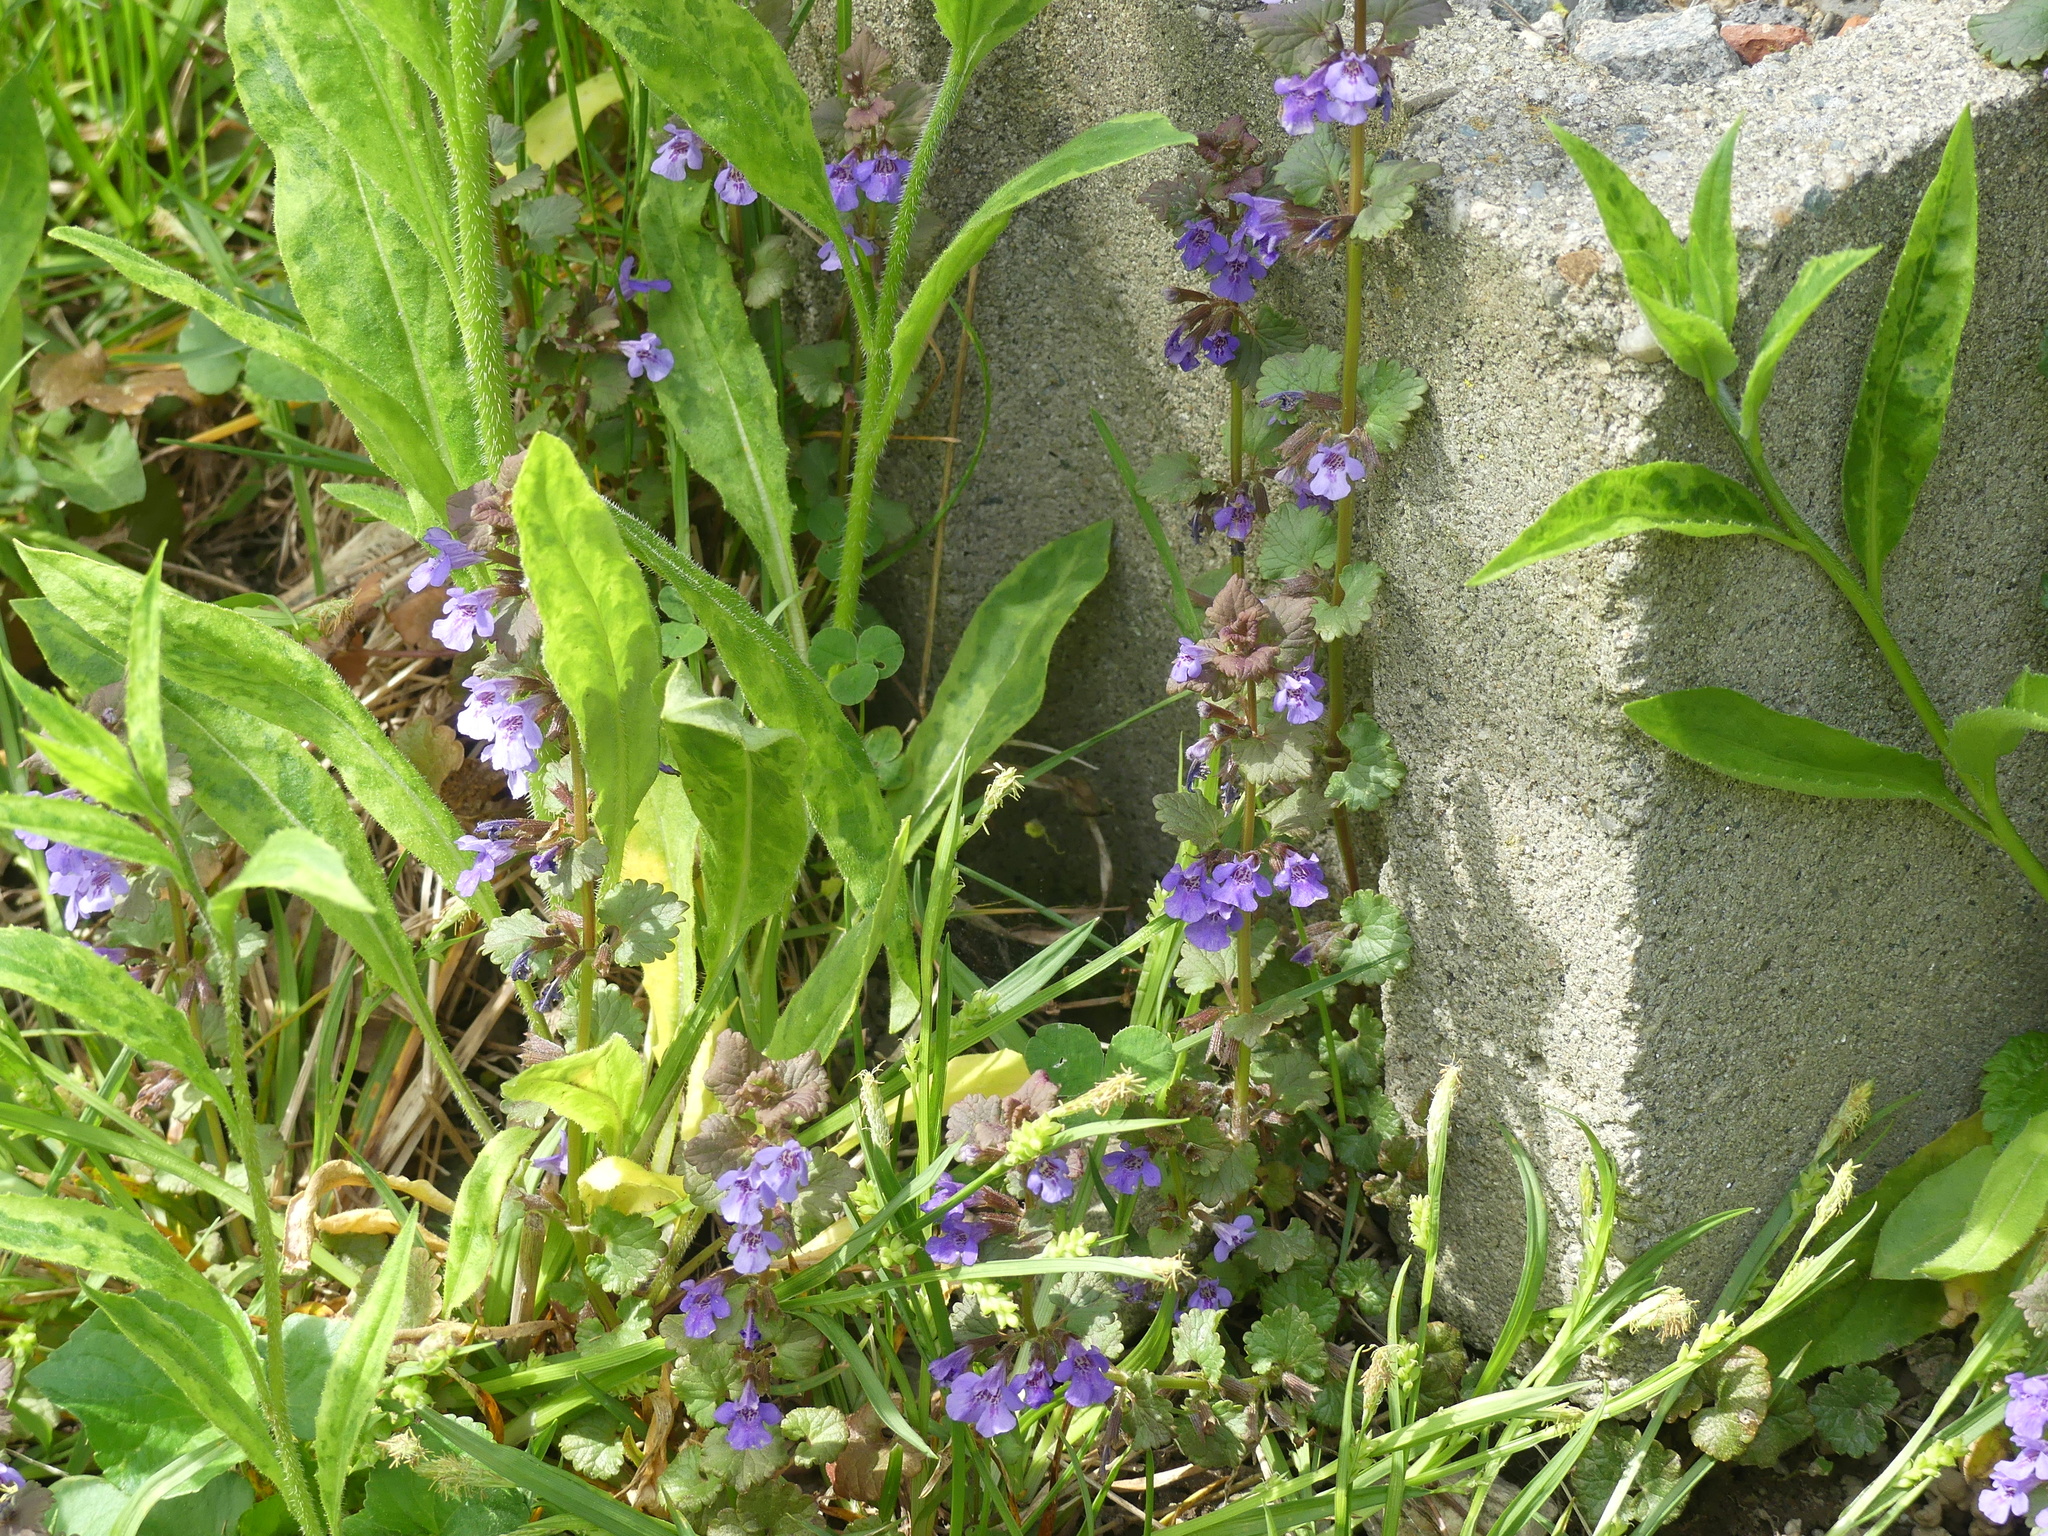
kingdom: Plantae
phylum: Tracheophyta
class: Magnoliopsida
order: Lamiales
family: Lamiaceae
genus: Glechoma
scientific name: Glechoma hederacea
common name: Ground ivy
